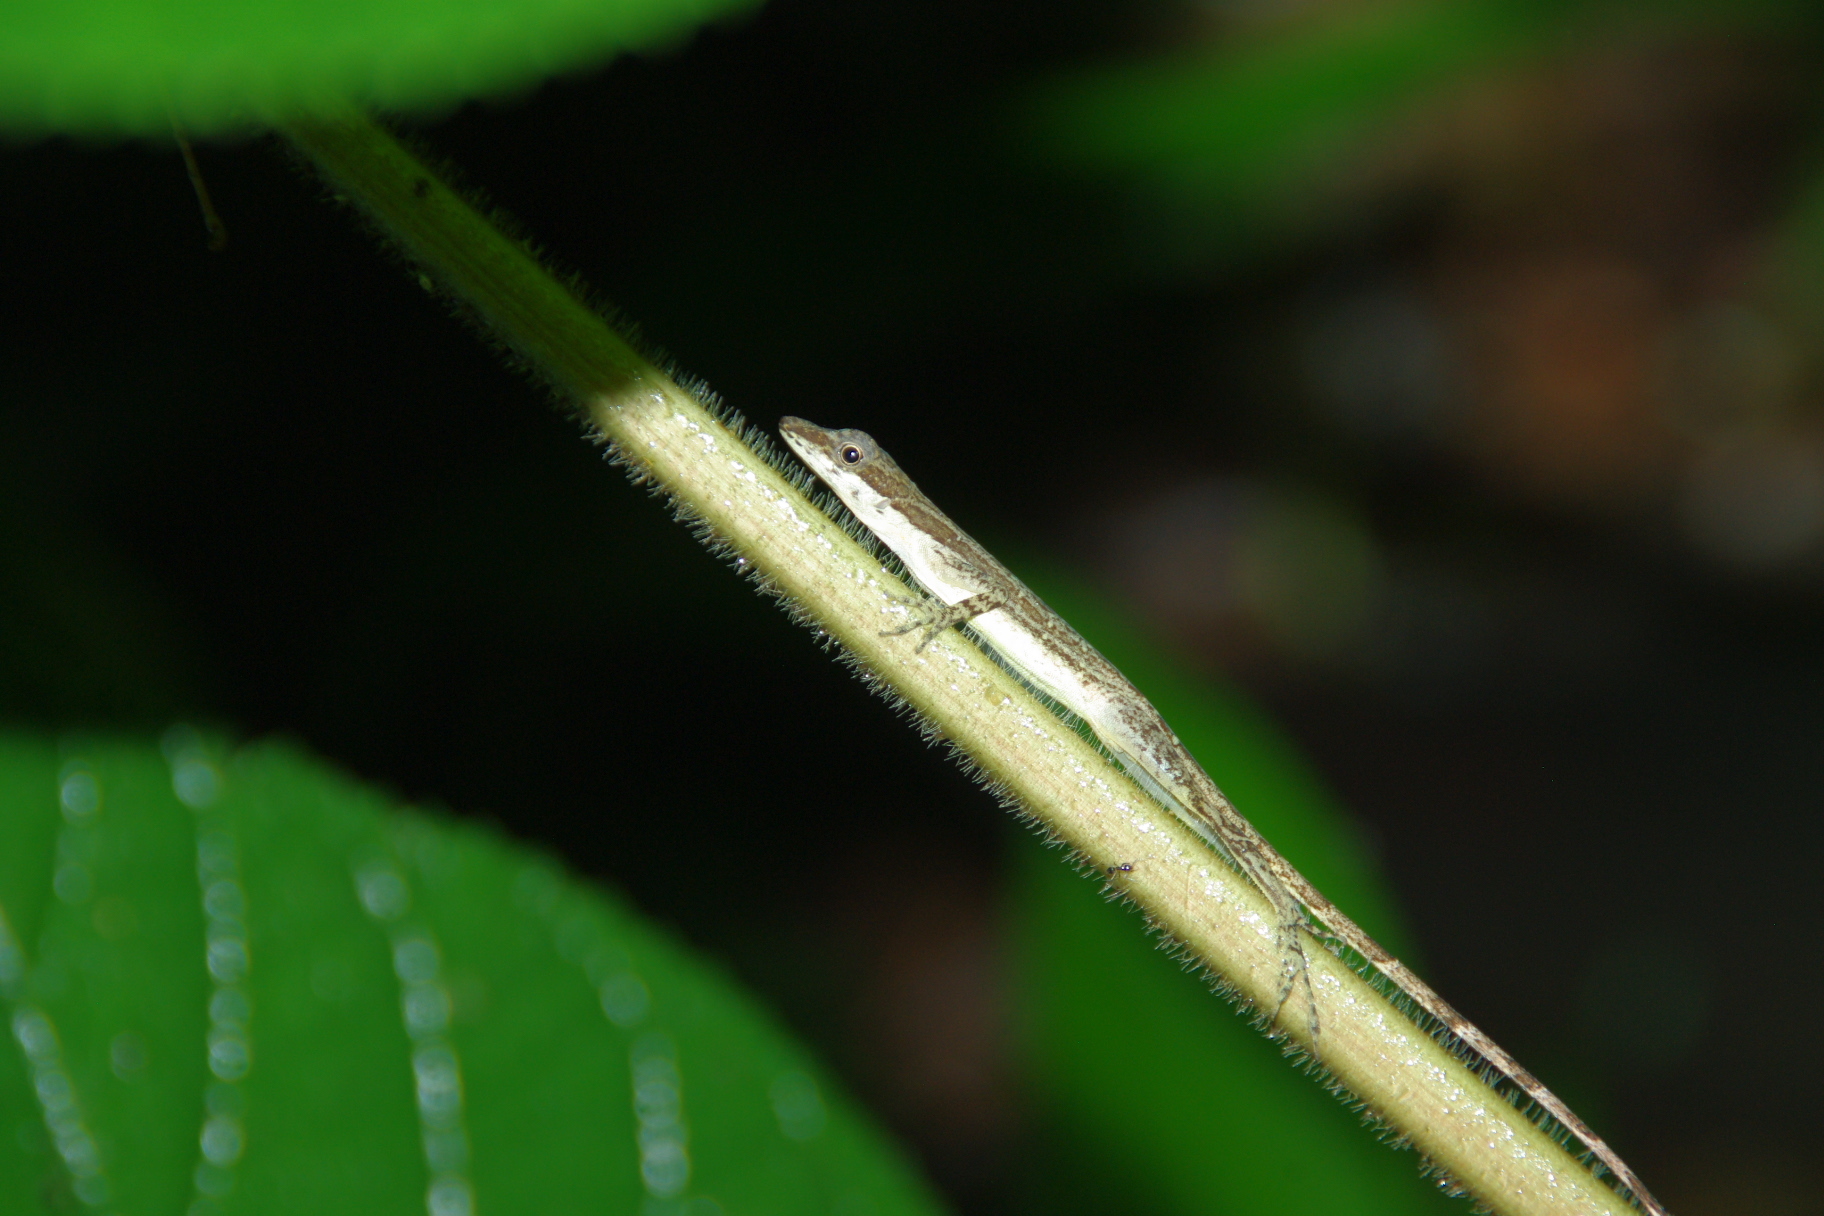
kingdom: Animalia
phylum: Chordata
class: Squamata
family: Dactyloidae
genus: Anolis
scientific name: Anolis limifrons
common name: Border anole
